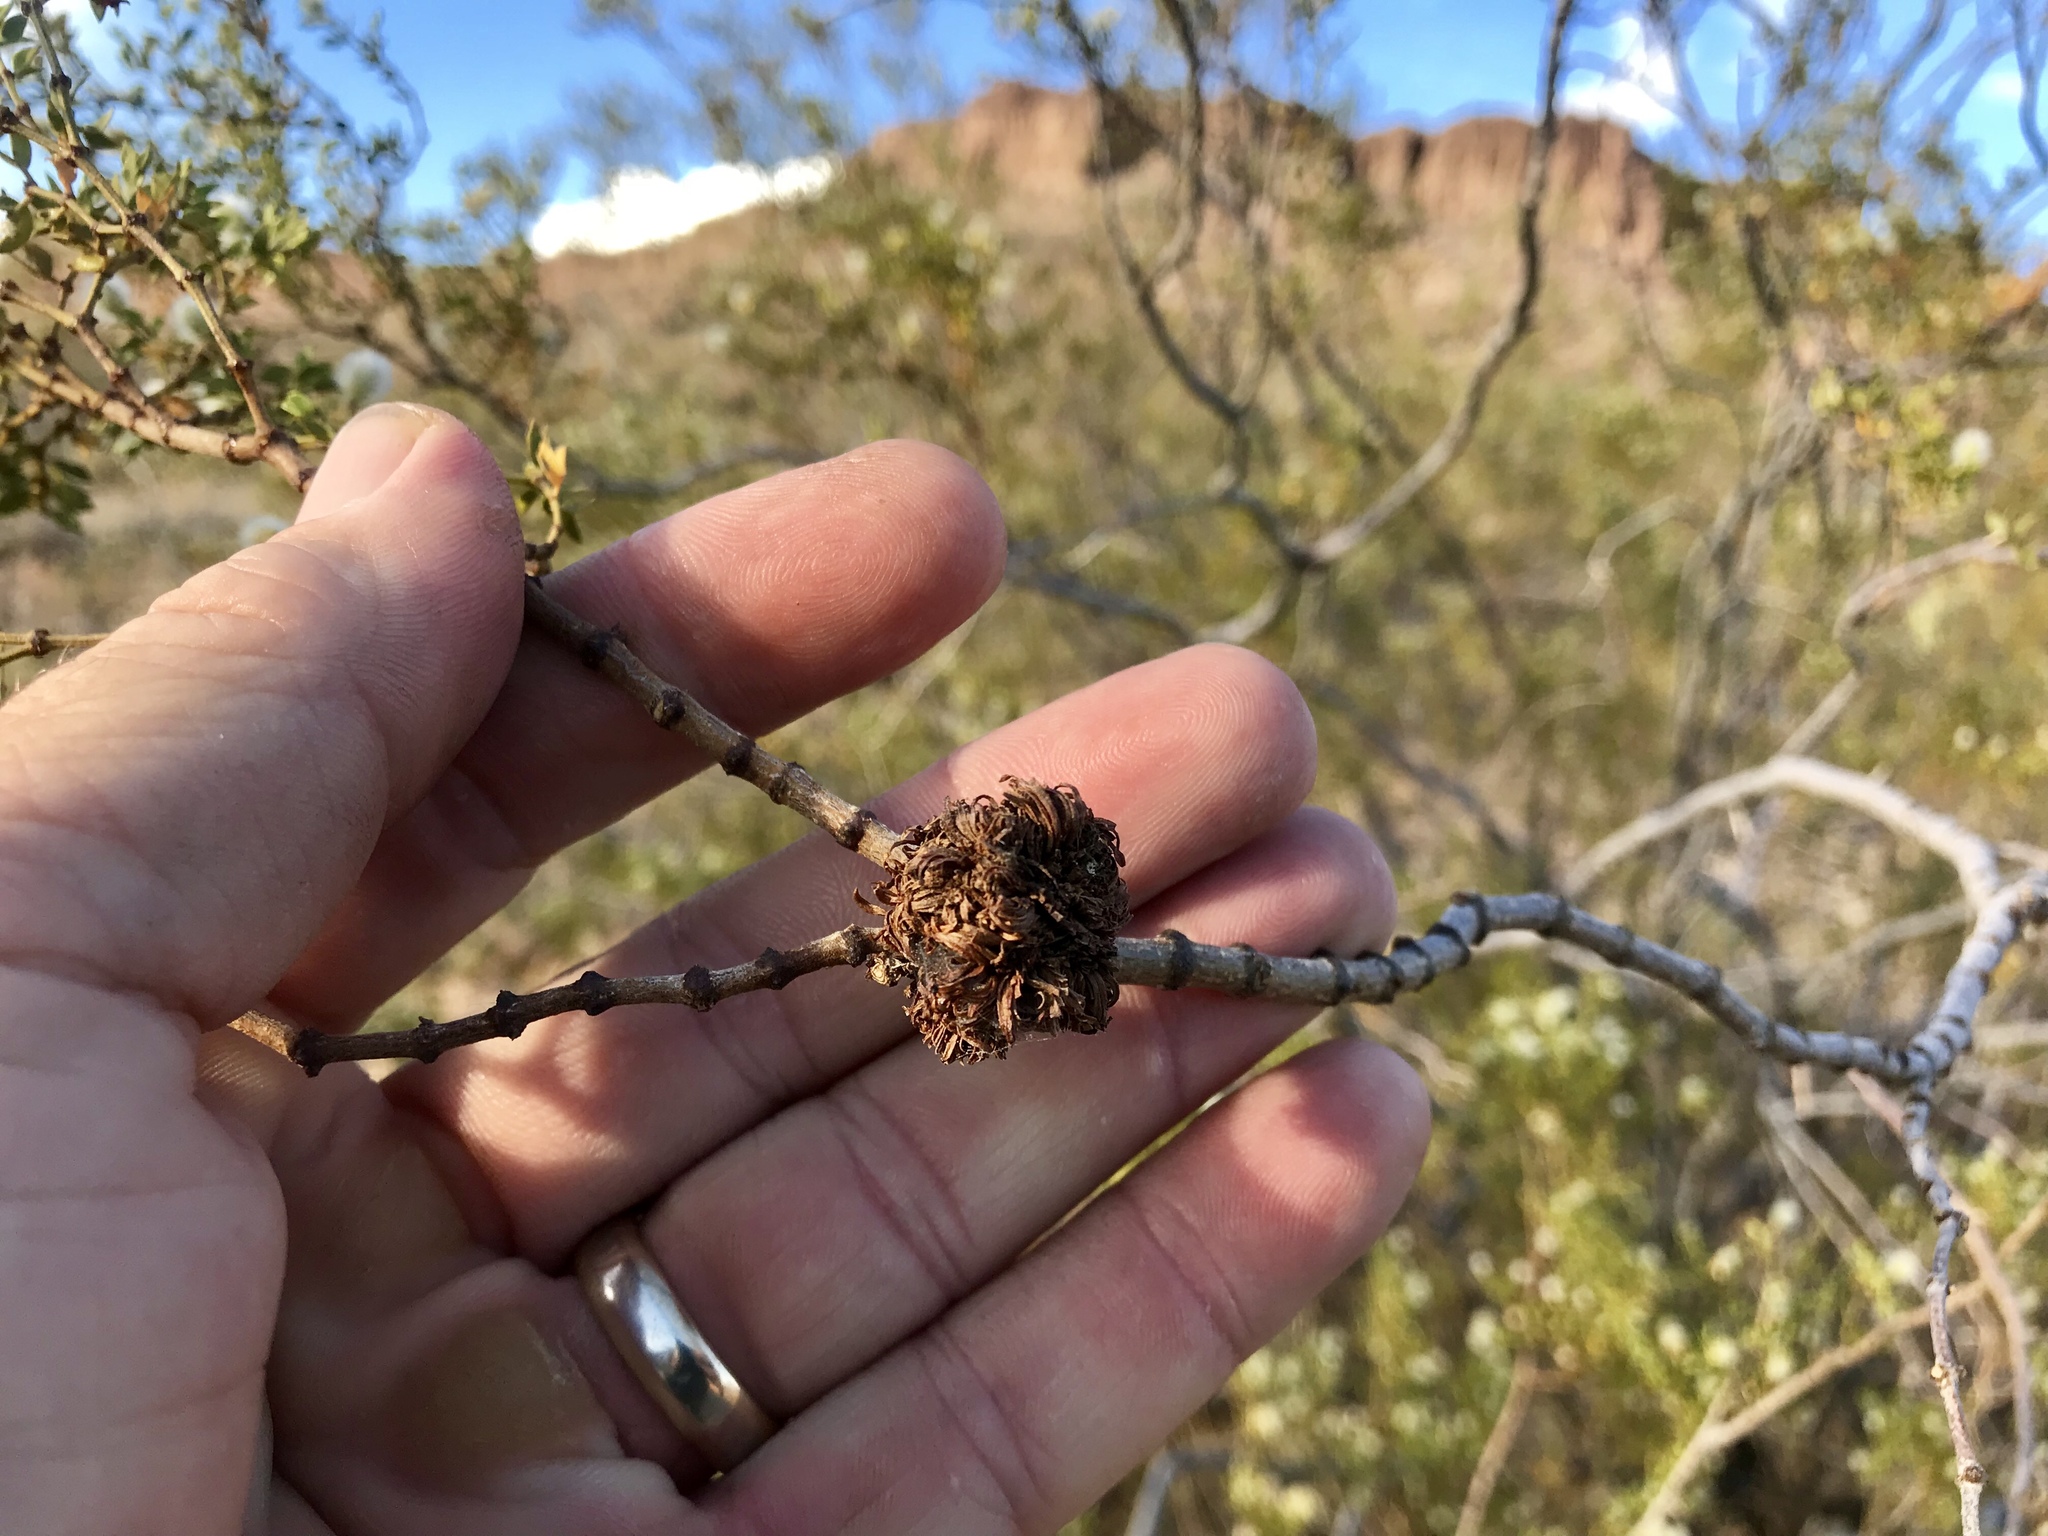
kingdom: Animalia
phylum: Arthropoda
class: Insecta
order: Diptera
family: Cecidomyiidae
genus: Asphondylia
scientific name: Asphondylia auripila
